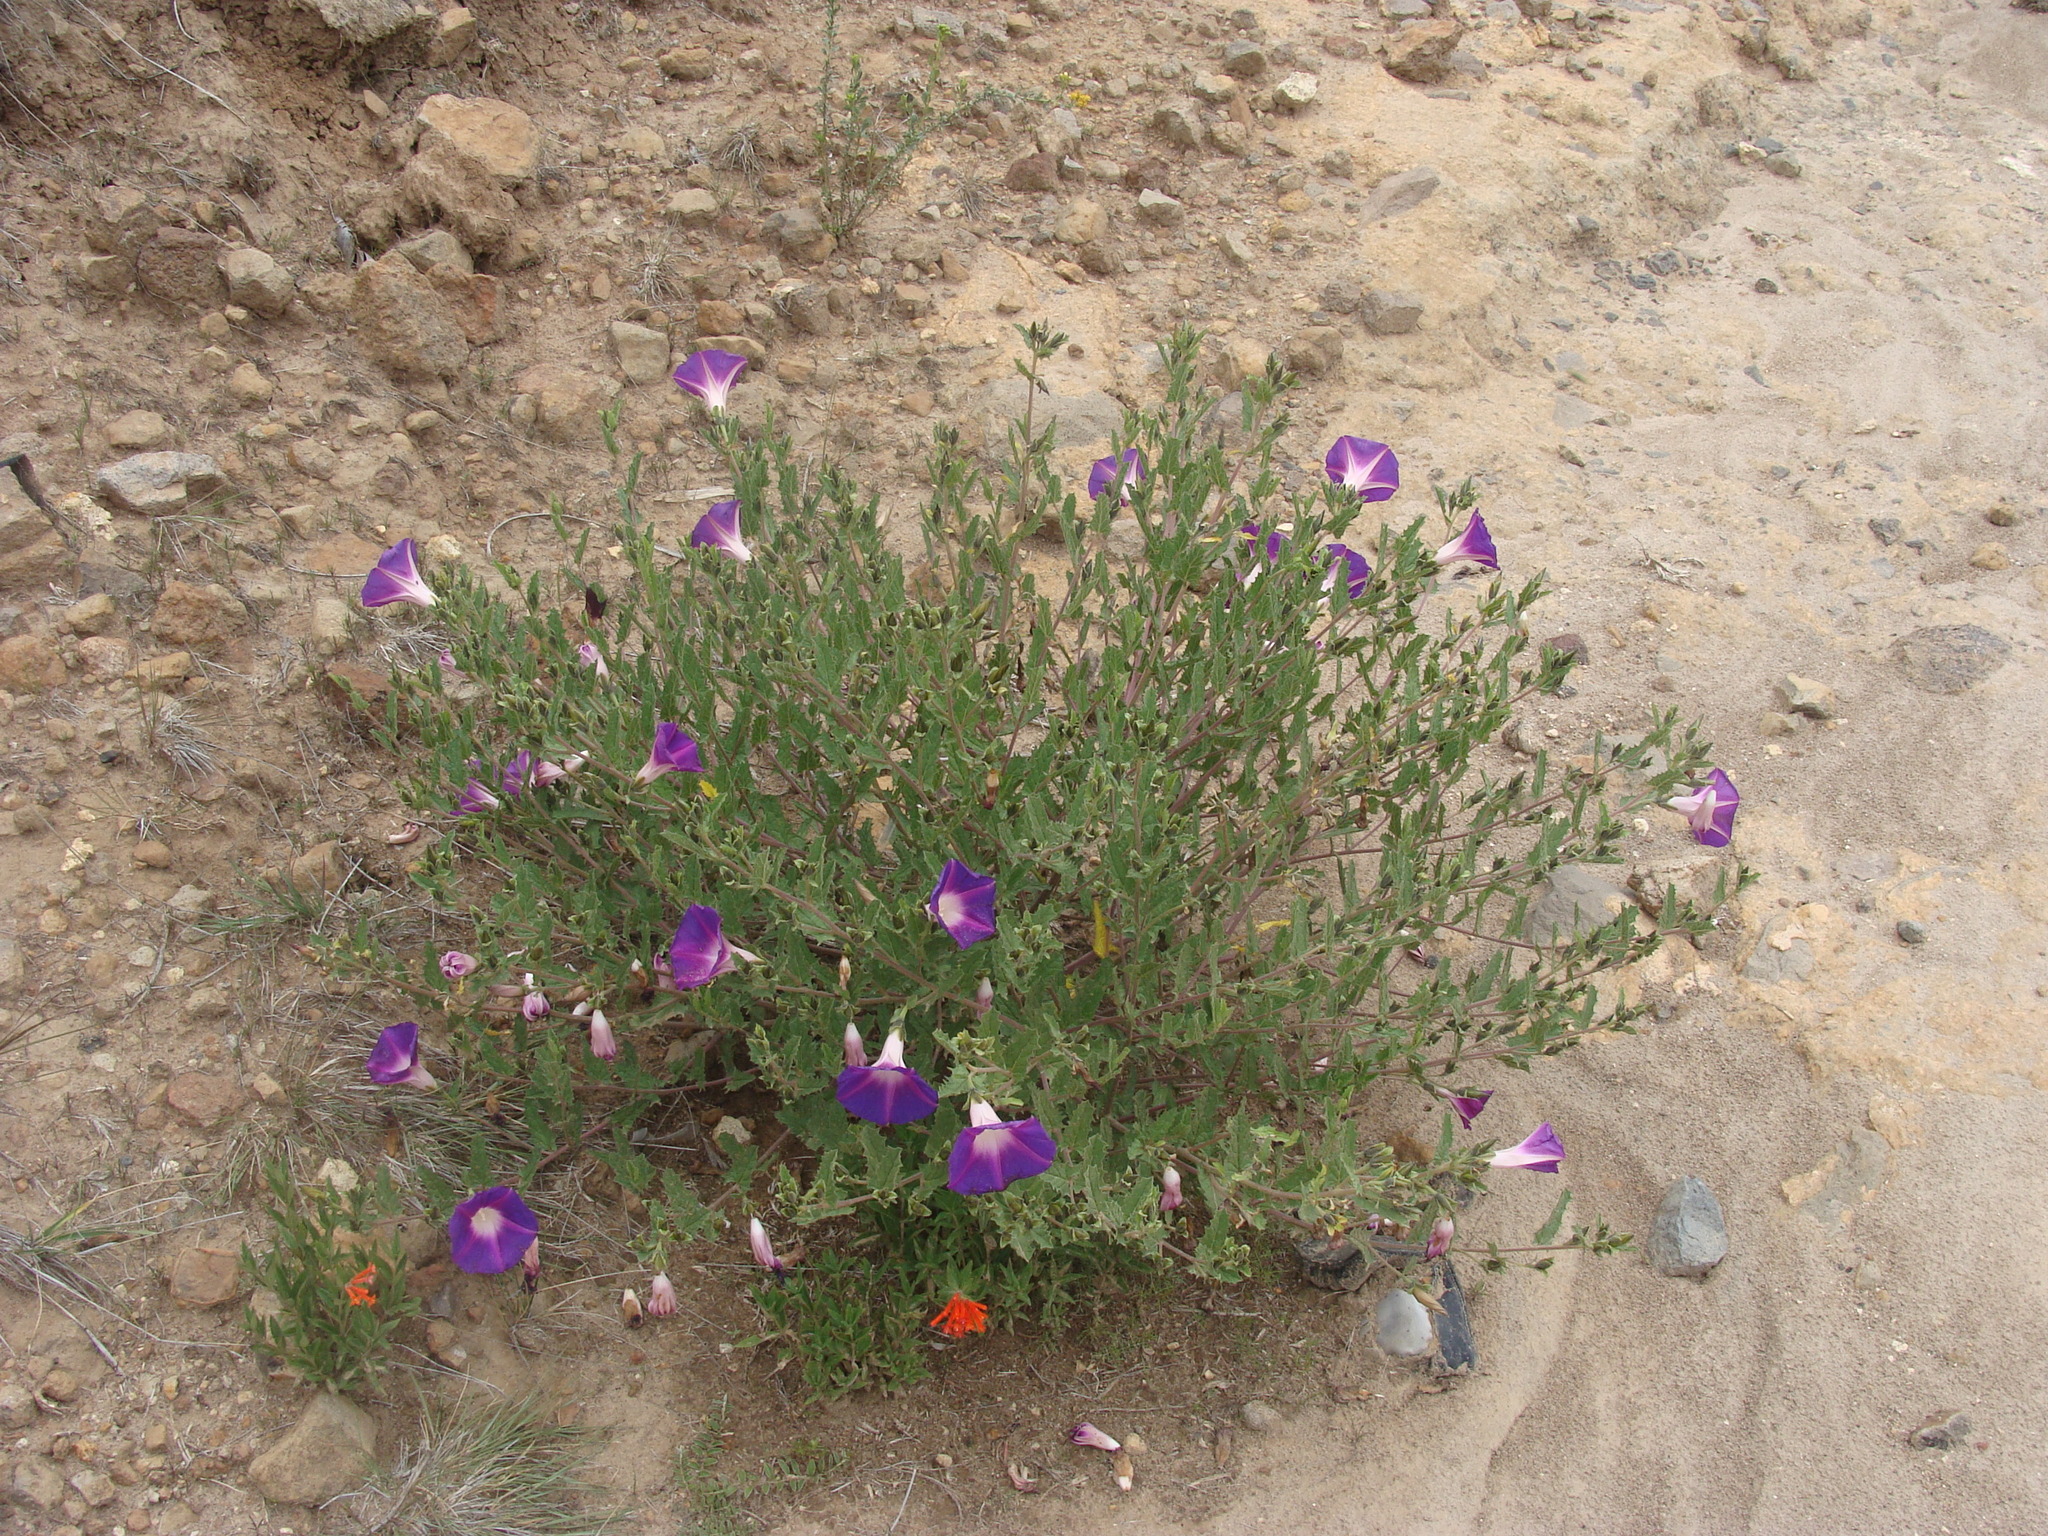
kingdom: Plantae
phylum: Tracheophyta
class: Magnoliopsida
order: Solanales
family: Convolvulaceae
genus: Ipomoea
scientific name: Ipomoea stans
